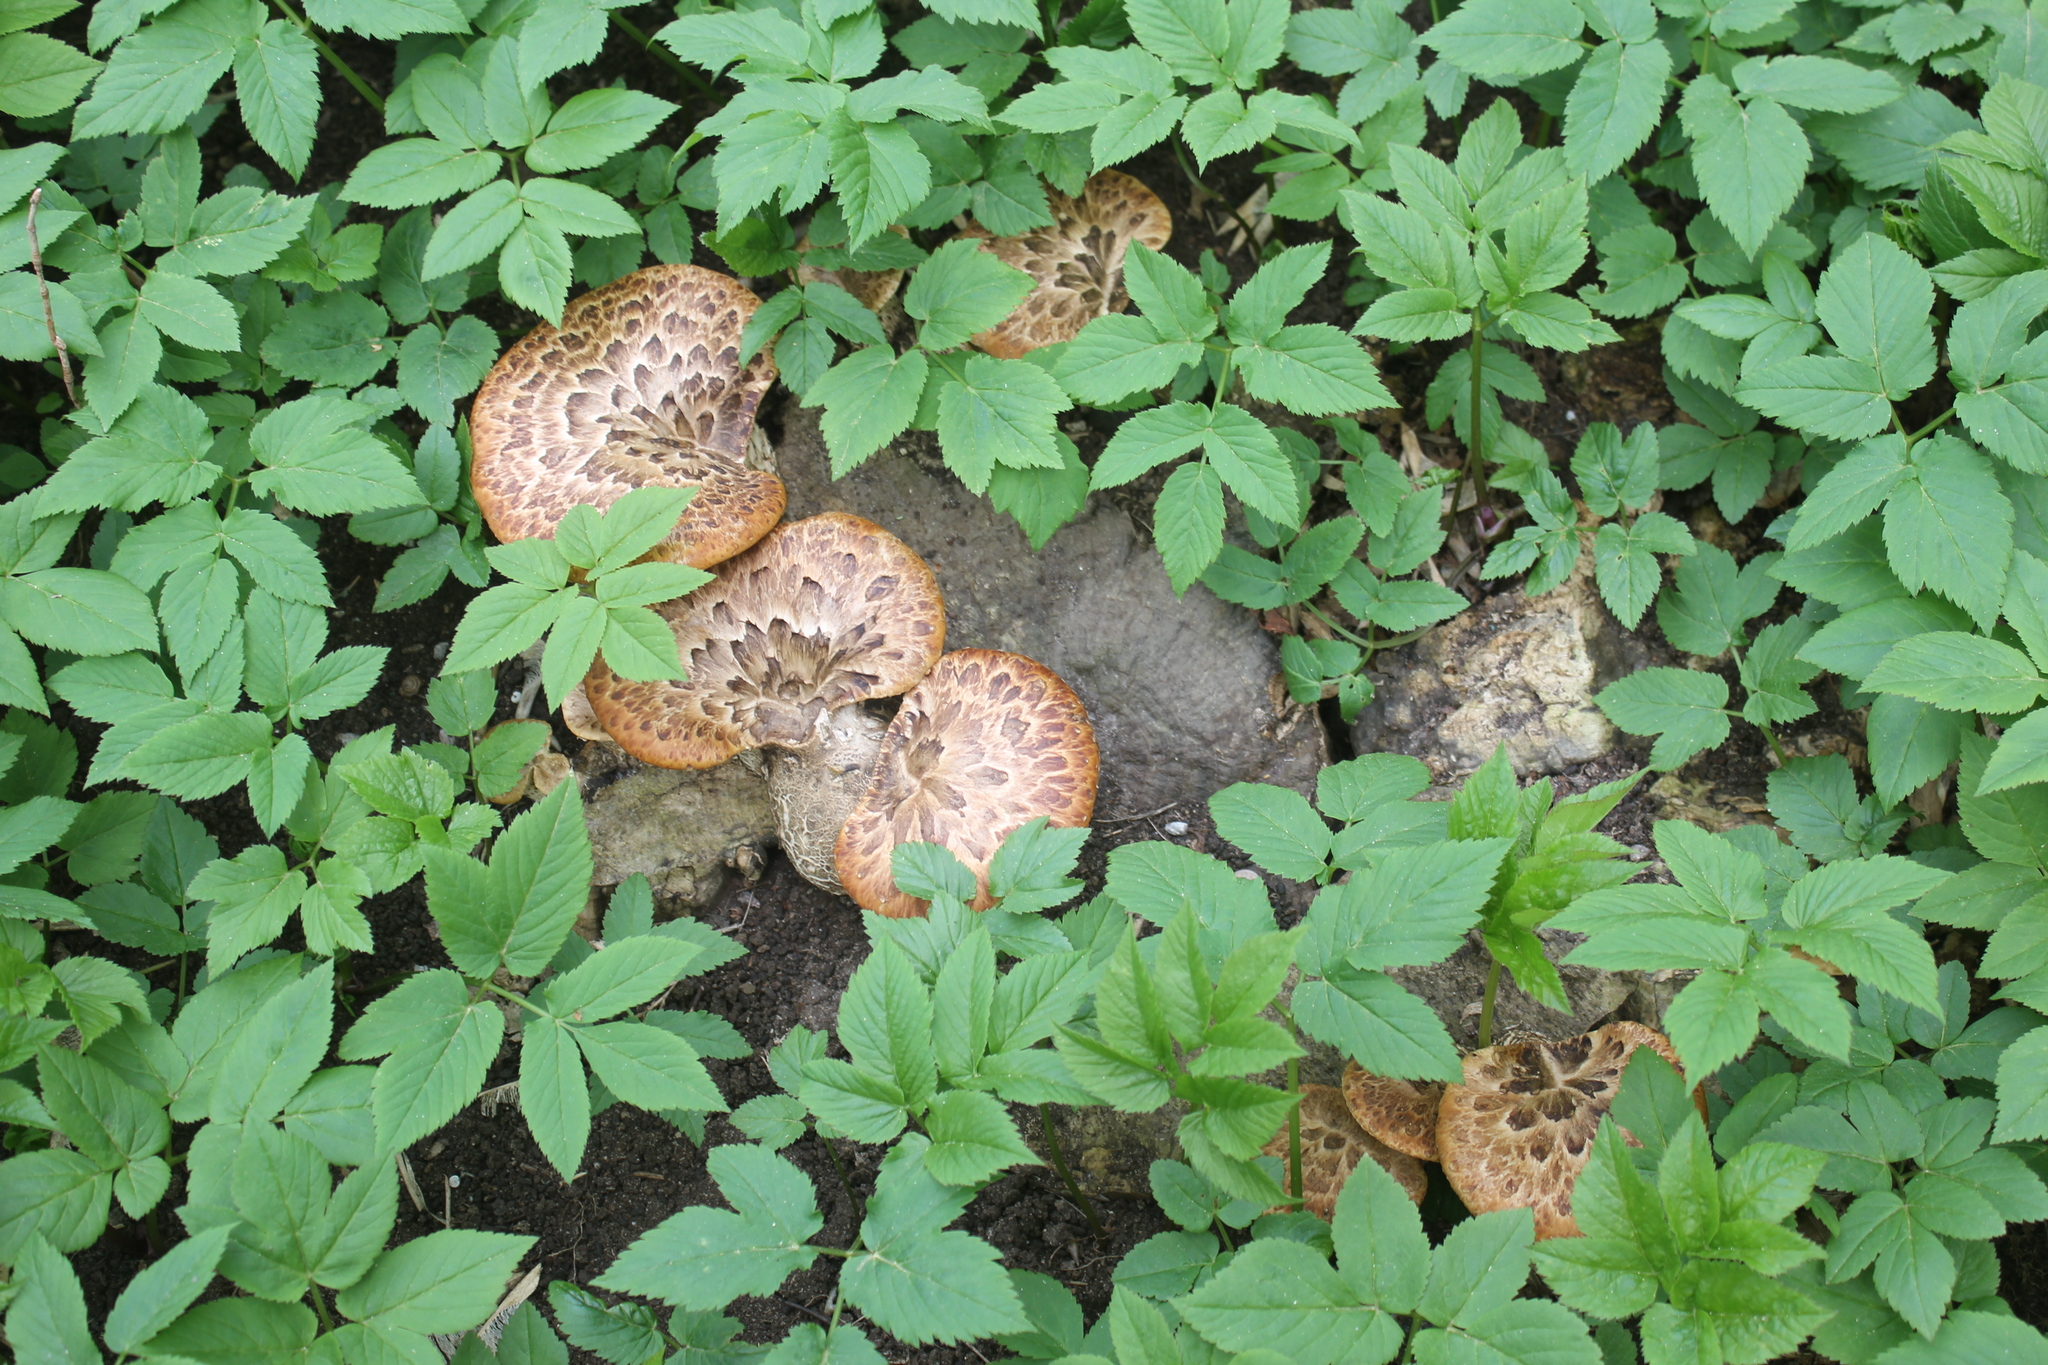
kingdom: Fungi
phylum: Basidiomycota
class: Agaricomycetes
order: Polyporales
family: Polyporaceae
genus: Cerioporus
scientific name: Cerioporus squamosus
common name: Dryad's saddle
